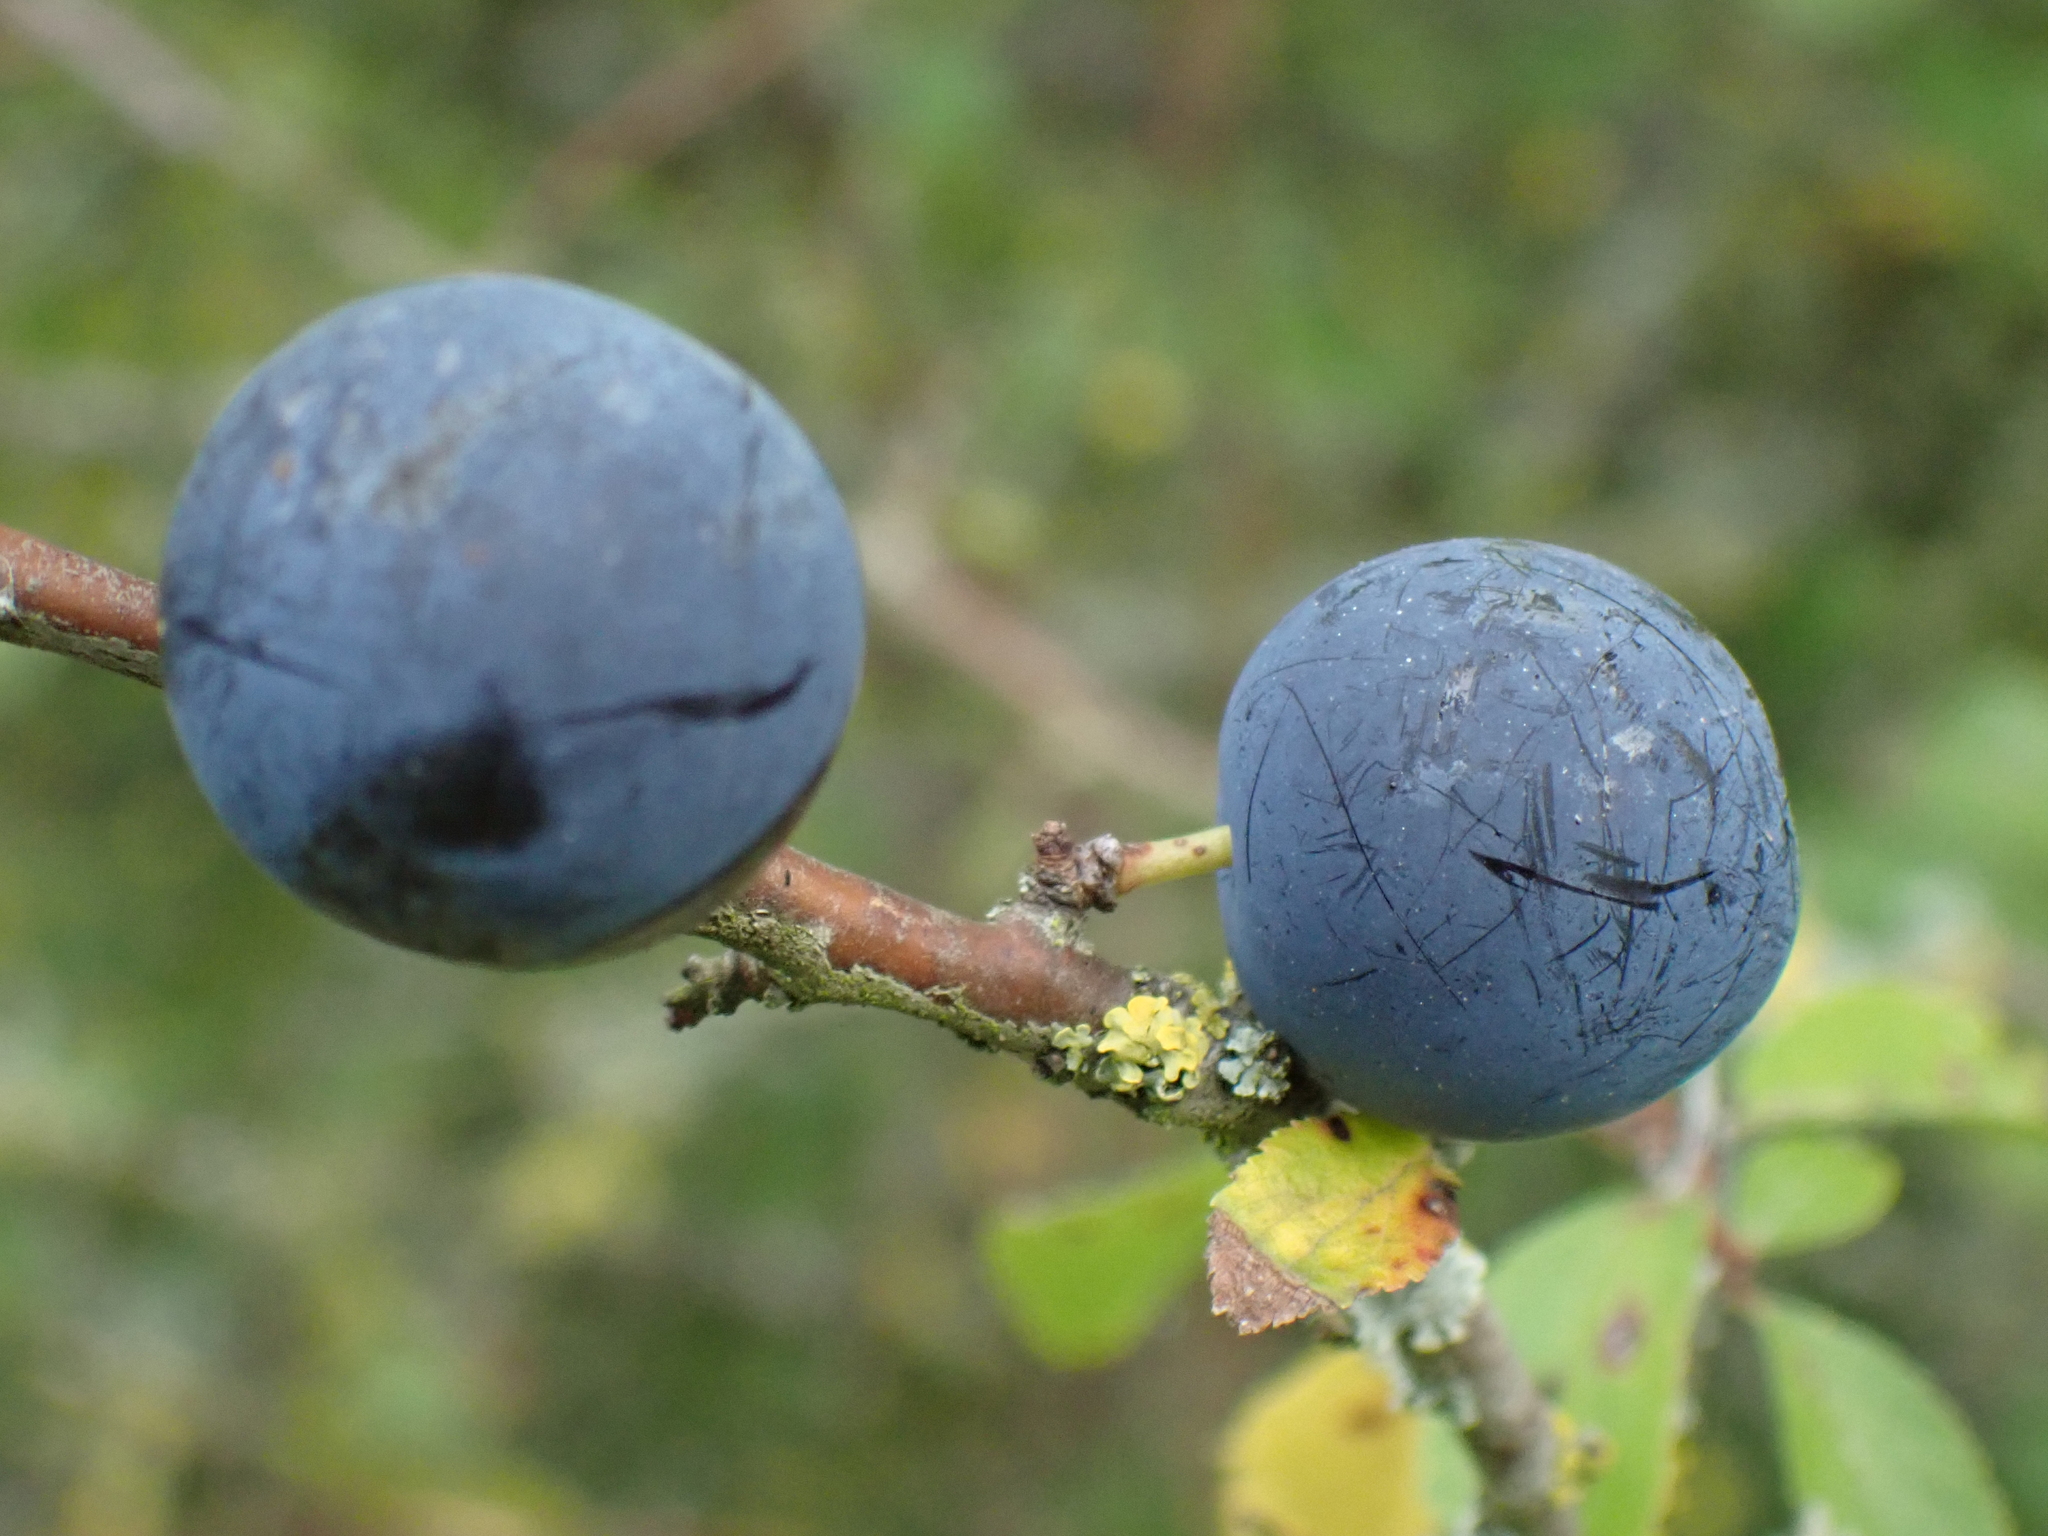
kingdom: Plantae
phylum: Tracheophyta
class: Magnoliopsida
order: Rosales
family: Rosaceae
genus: Prunus
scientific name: Prunus spinosa
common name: Blackthorn
